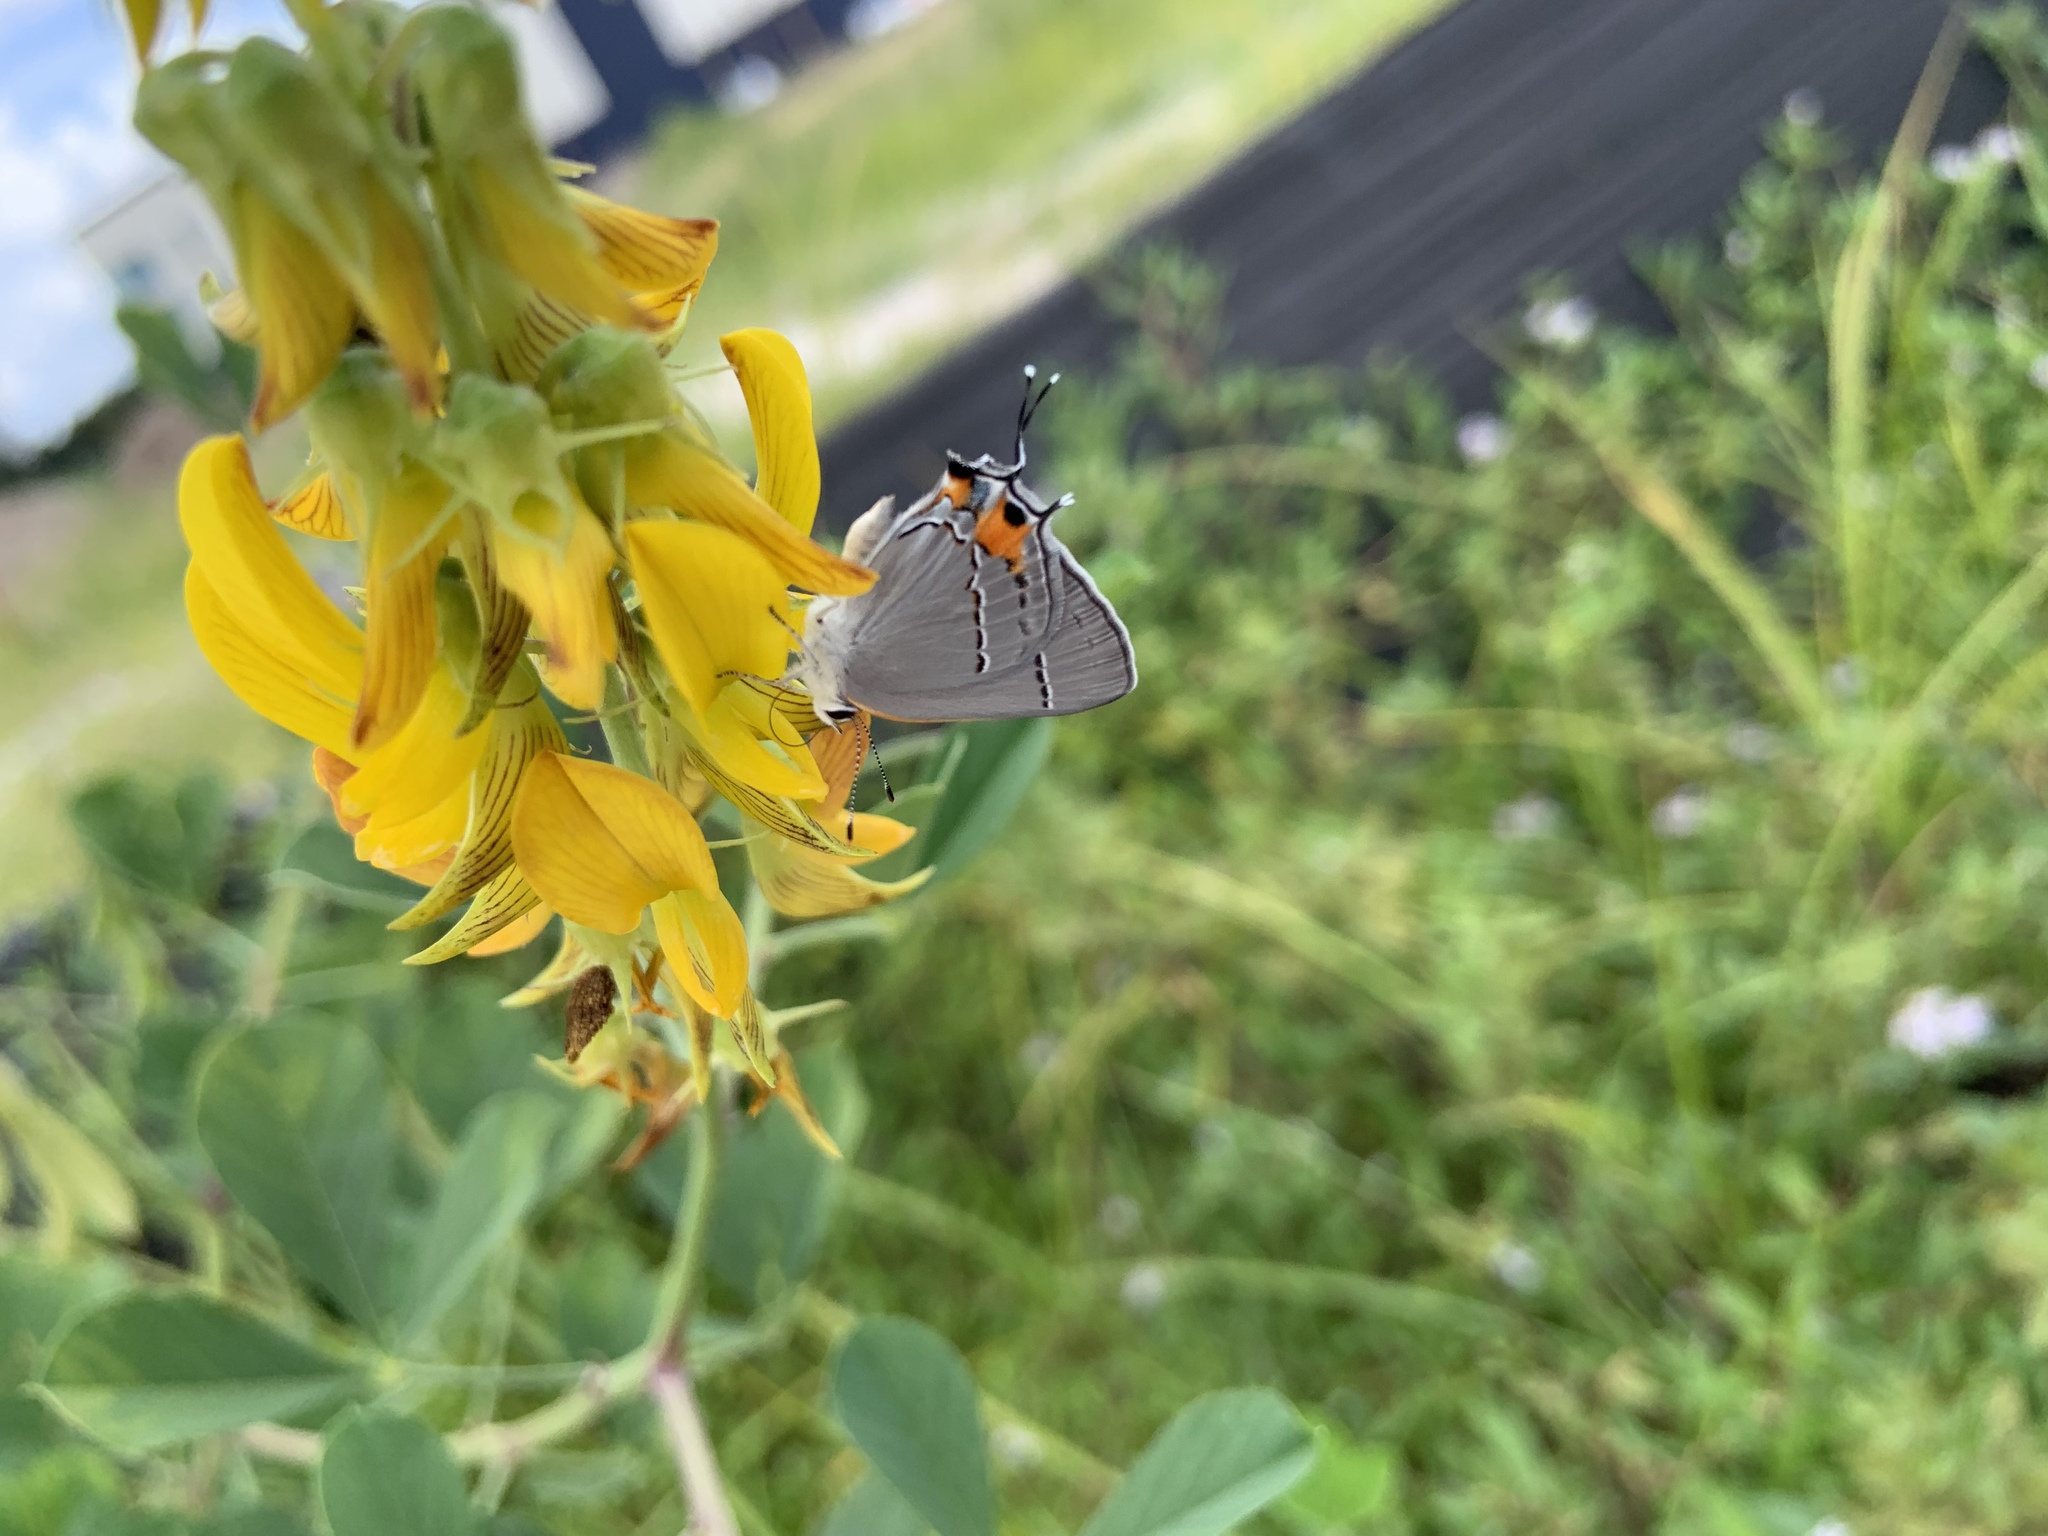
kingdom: Animalia
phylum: Arthropoda
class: Insecta
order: Lepidoptera
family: Lycaenidae
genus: Strymon
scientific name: Strymon melinus
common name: Gray hairstreak
